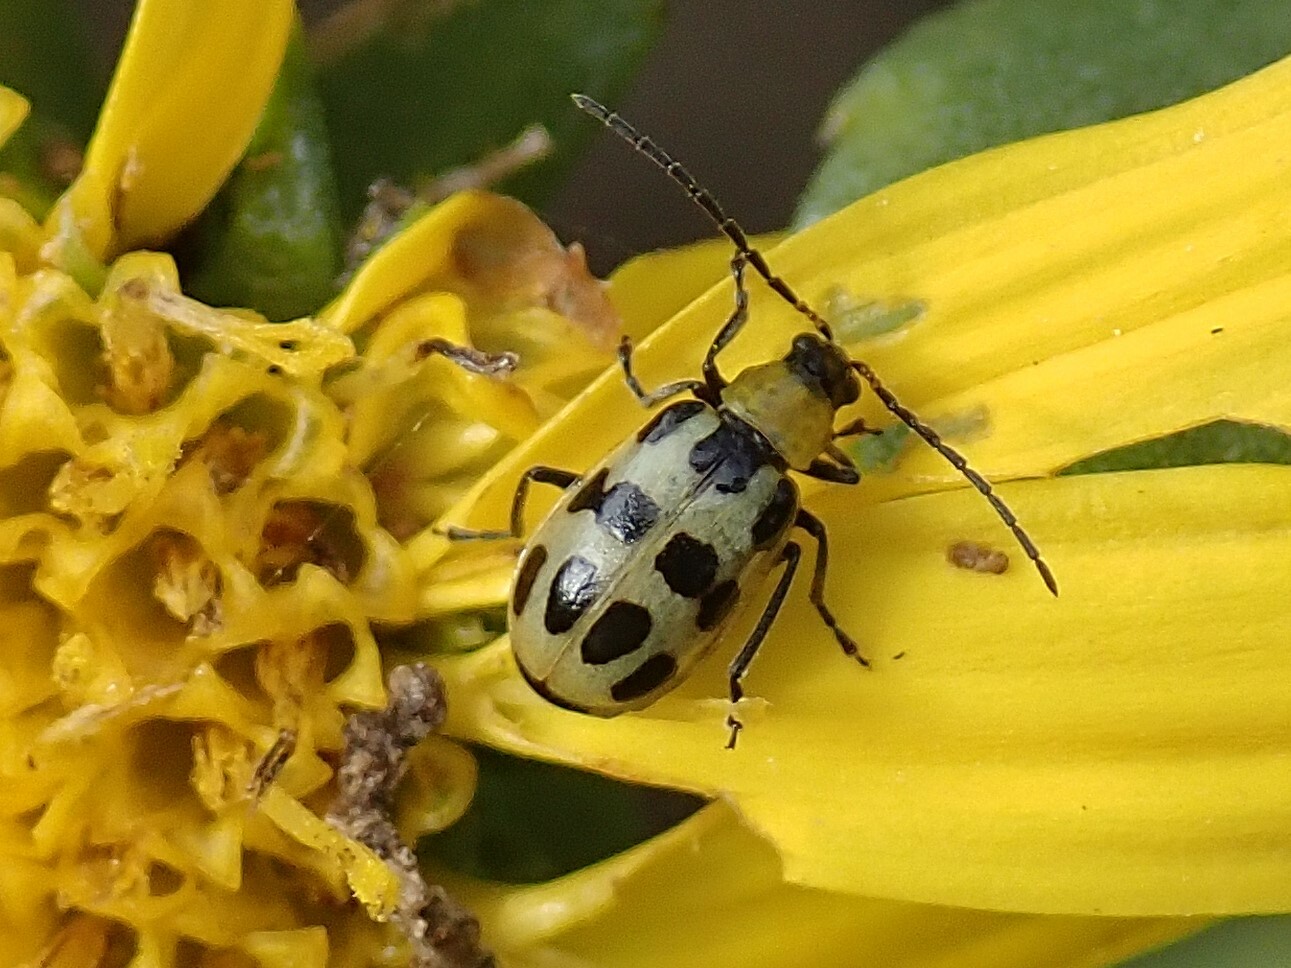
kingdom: Animalia
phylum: Arthropoda
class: Insecta
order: Coleoptera
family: Chrysomelidae
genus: Diabrotica
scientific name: Diabrotica undecimpunctata
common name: Spotted cucumber beetle
